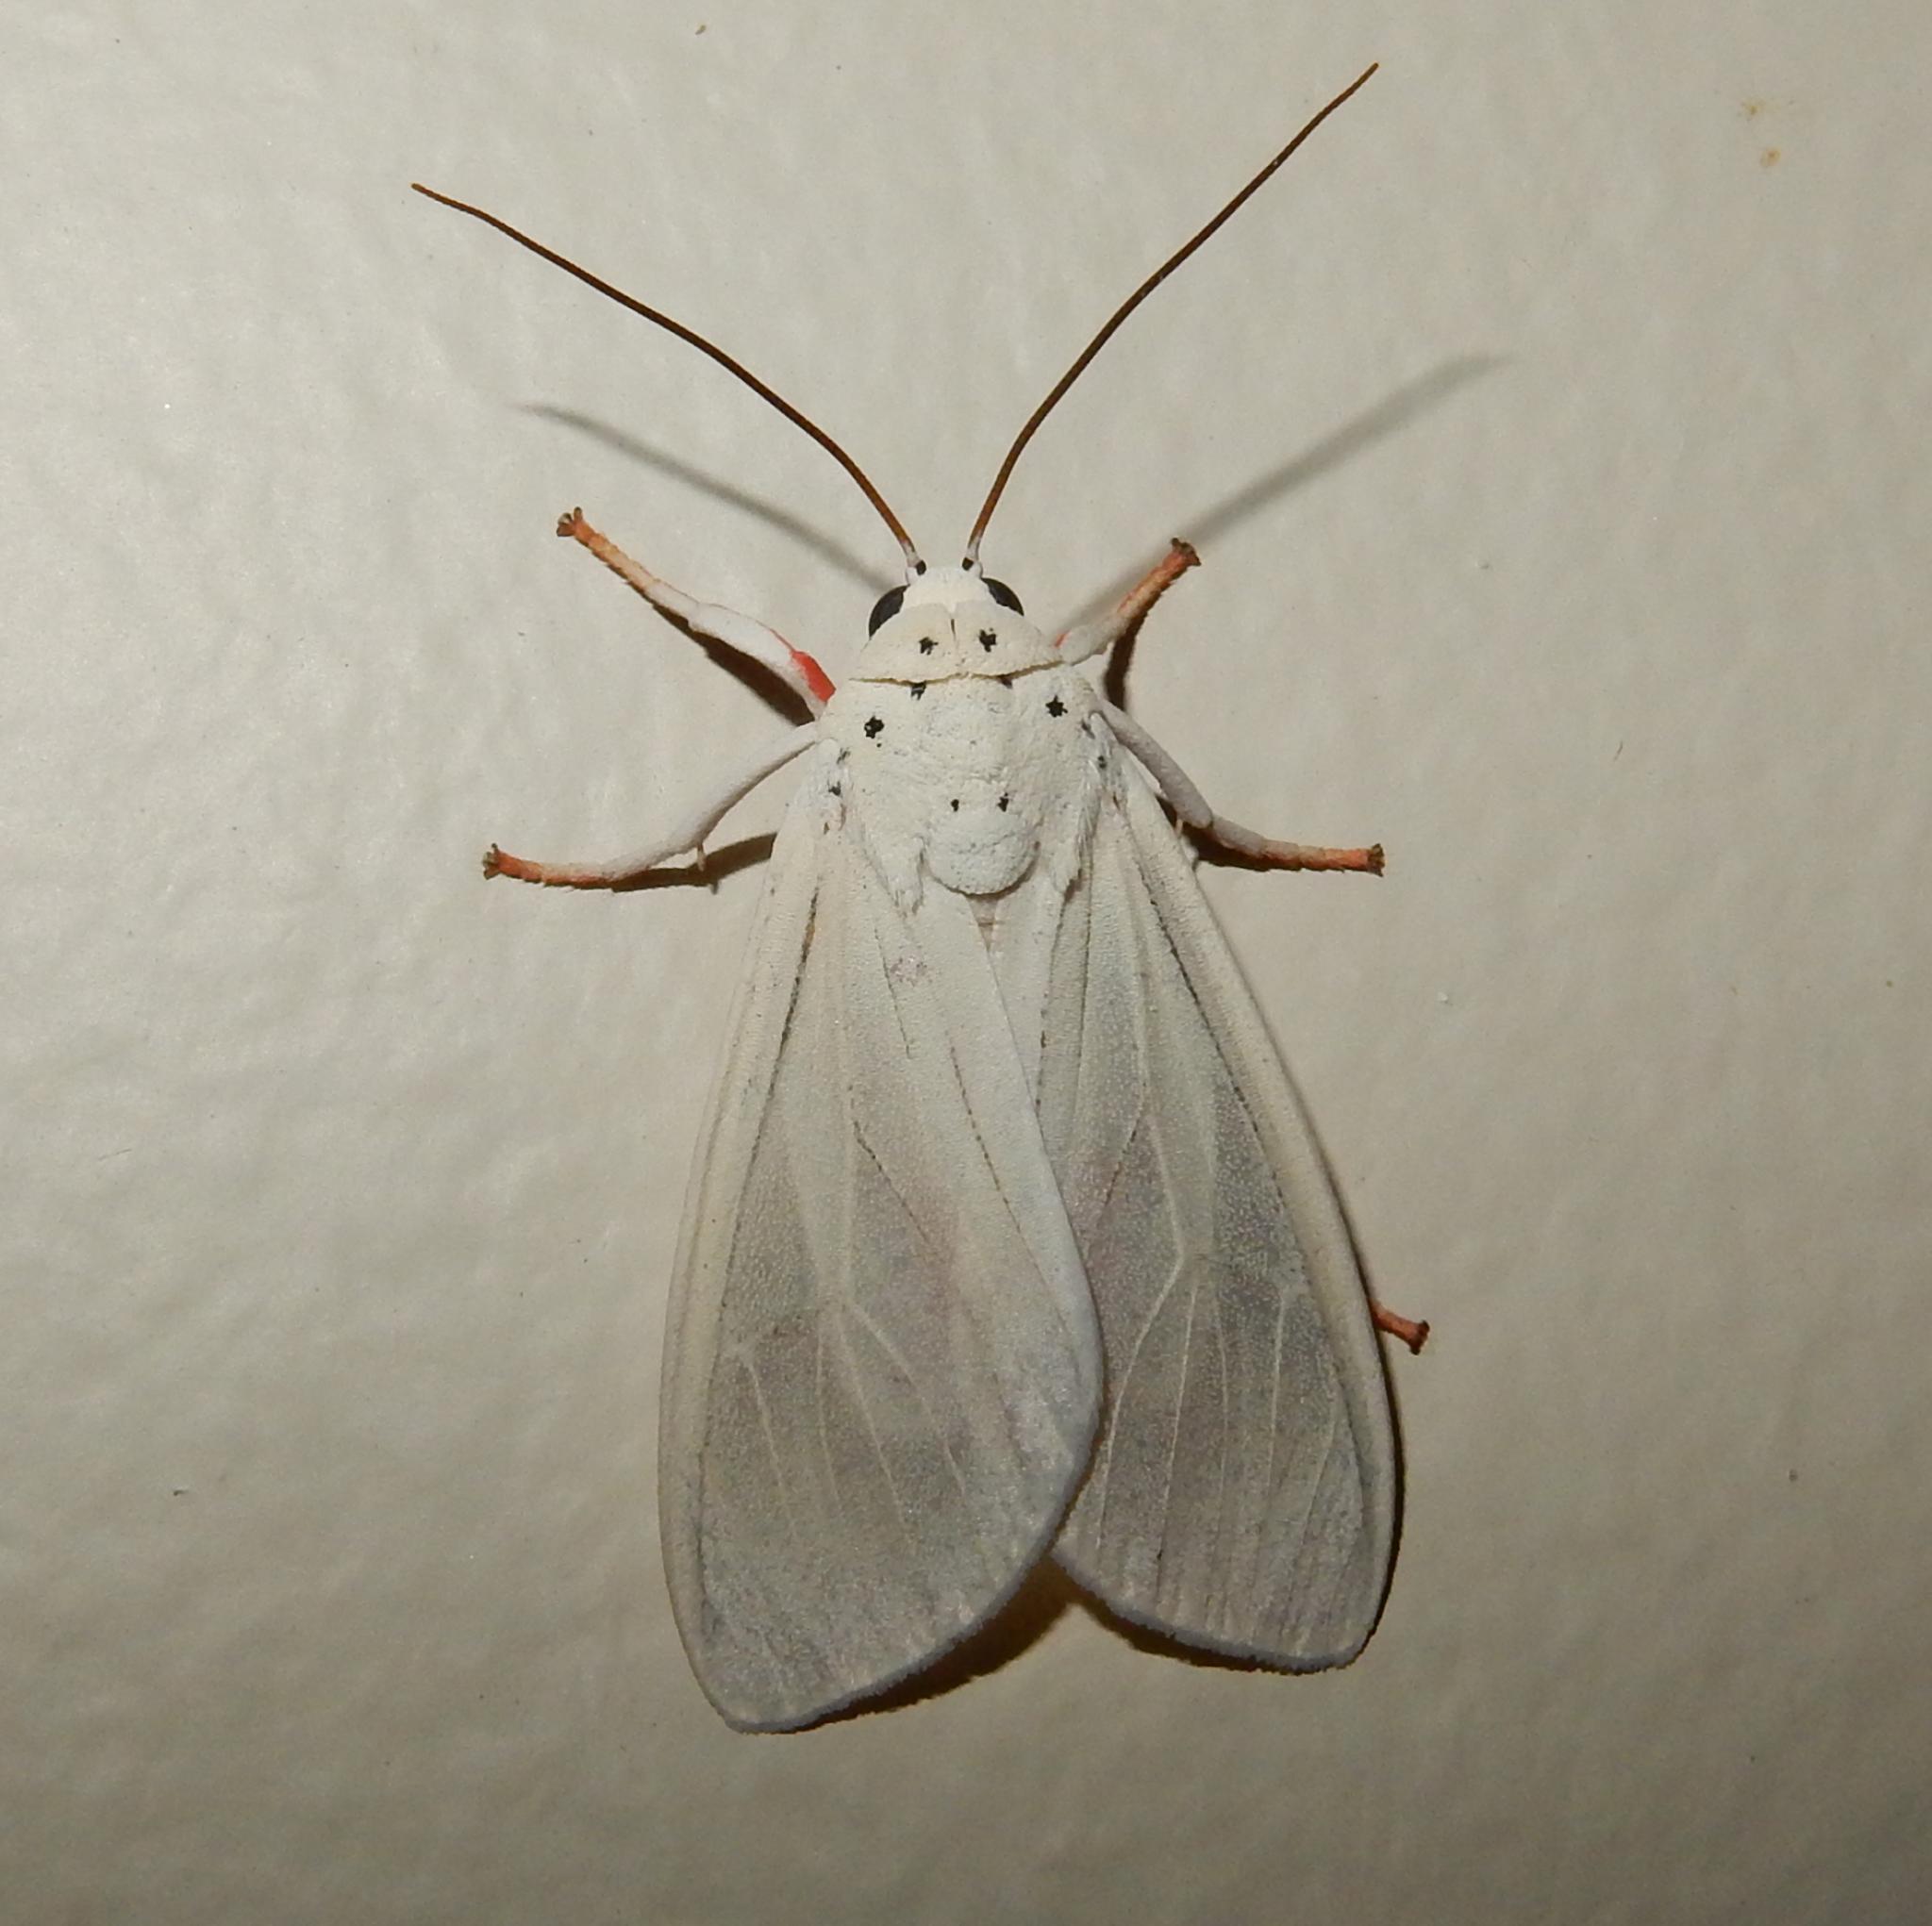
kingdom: Animalia
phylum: Arthropoda
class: Insecta
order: Lepidoptera
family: Erebidae
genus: Amerila
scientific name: Amerila lupia
